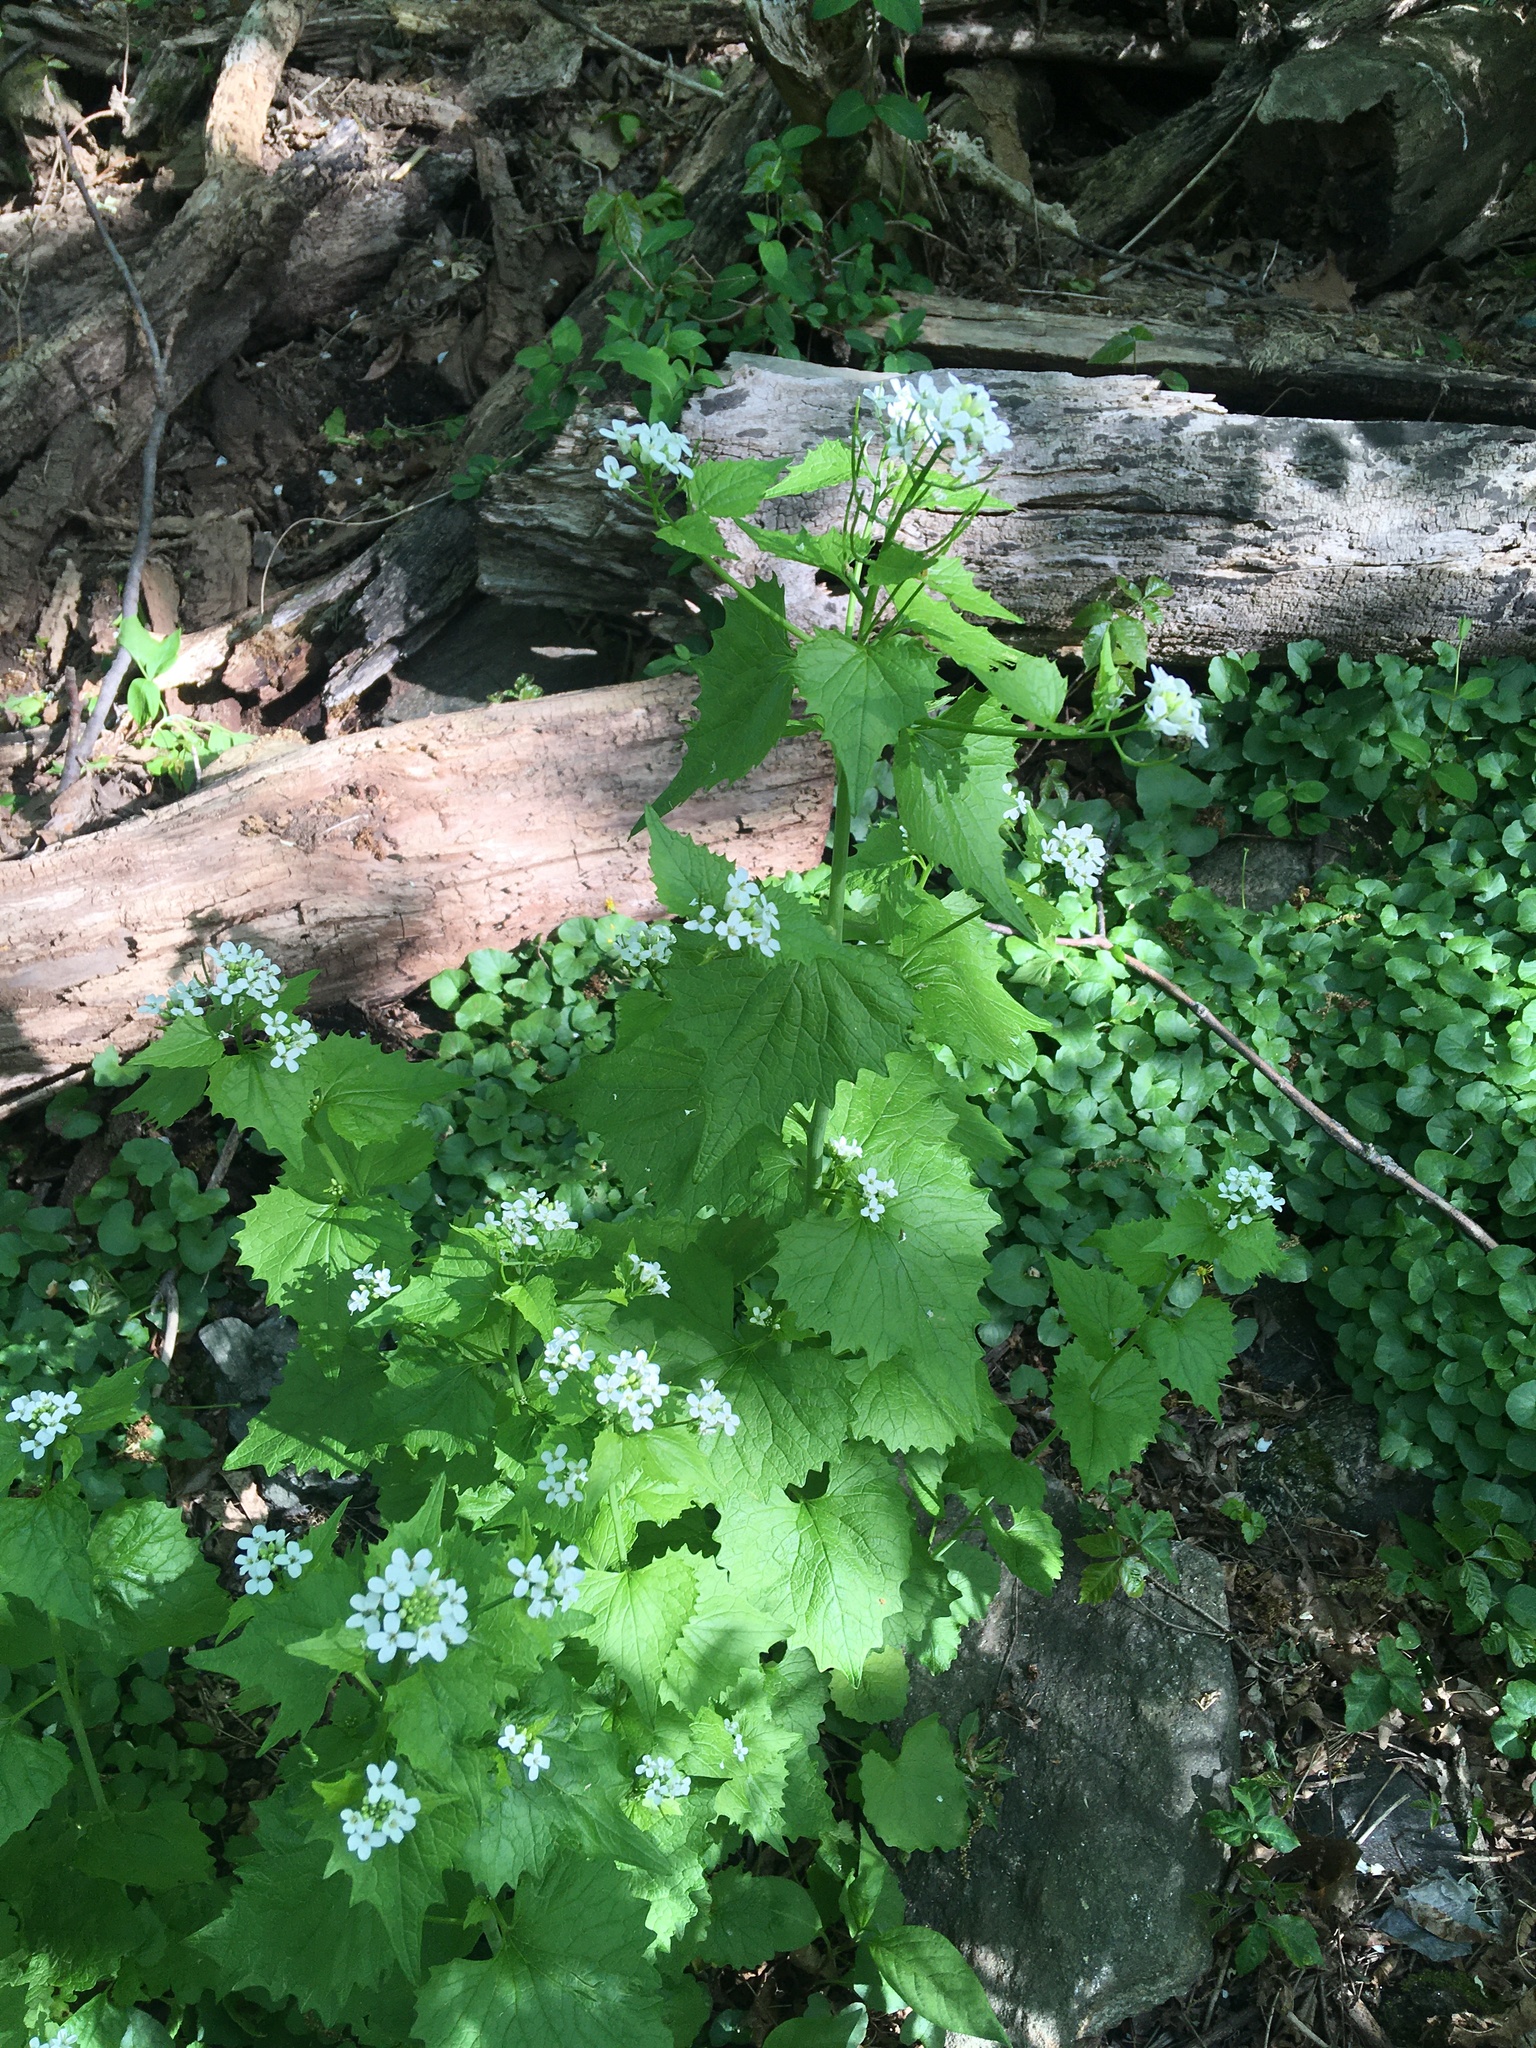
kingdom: Plantae
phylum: Tracheophyta
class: Magnoliopsida
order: Brassicales
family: Brassicaceae
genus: Alliaria
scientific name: Alliaria petiolata
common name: Garlic mustard
